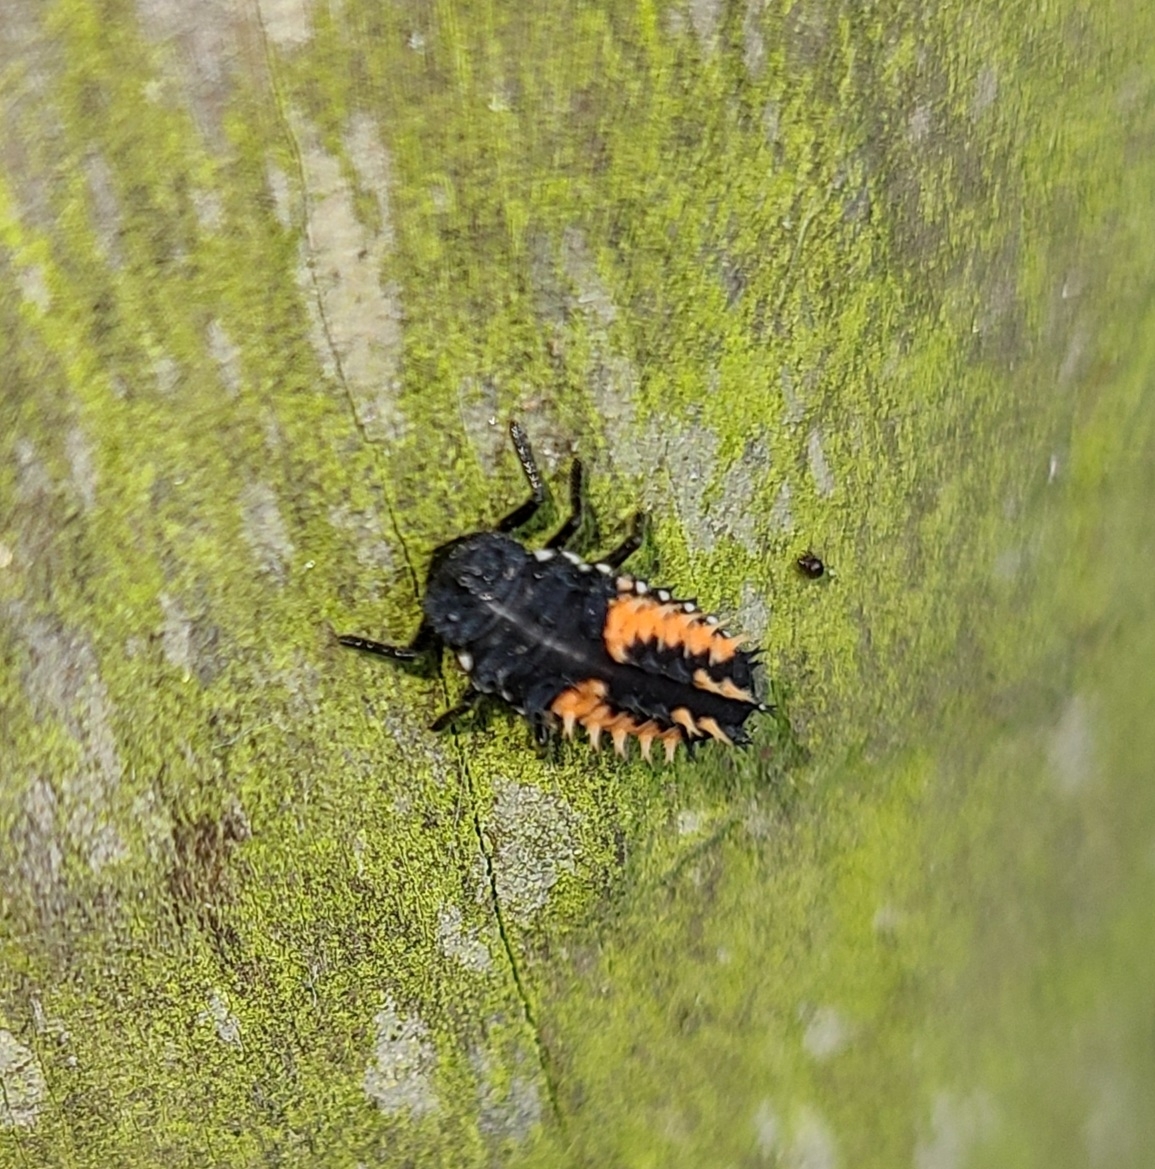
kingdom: Animalia
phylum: Arthropoda
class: Insecta
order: Coleoptera
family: Coccinellidae
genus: Harmonia
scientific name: Harmonia axyridis
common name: Harlequin ladybird
